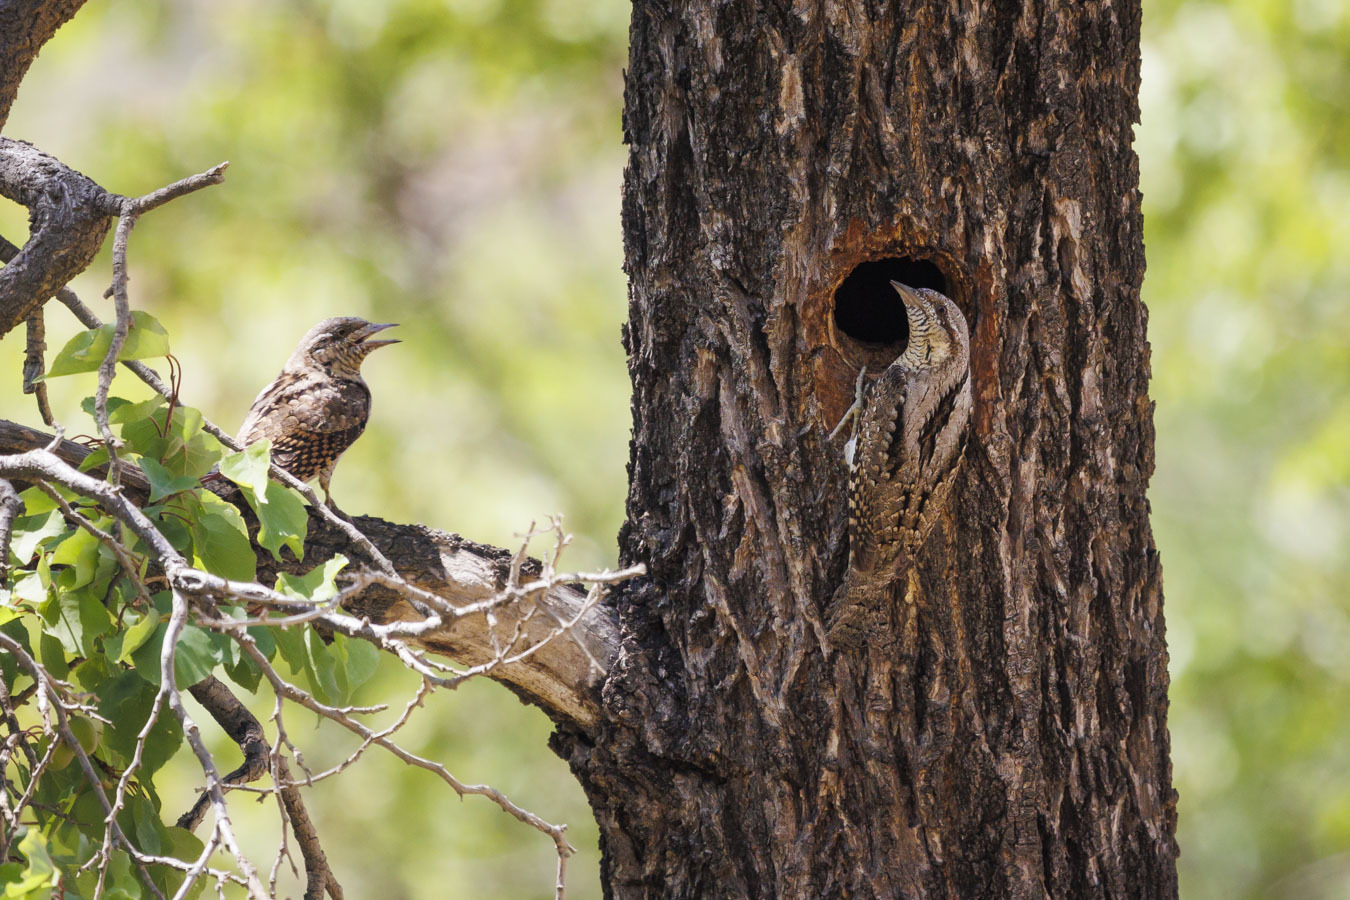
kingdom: Animalia
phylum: Chordata
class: Aves
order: Piciformes
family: Picidae
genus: Jynx
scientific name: Jynx torquilla
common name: Eurasian wryneck
